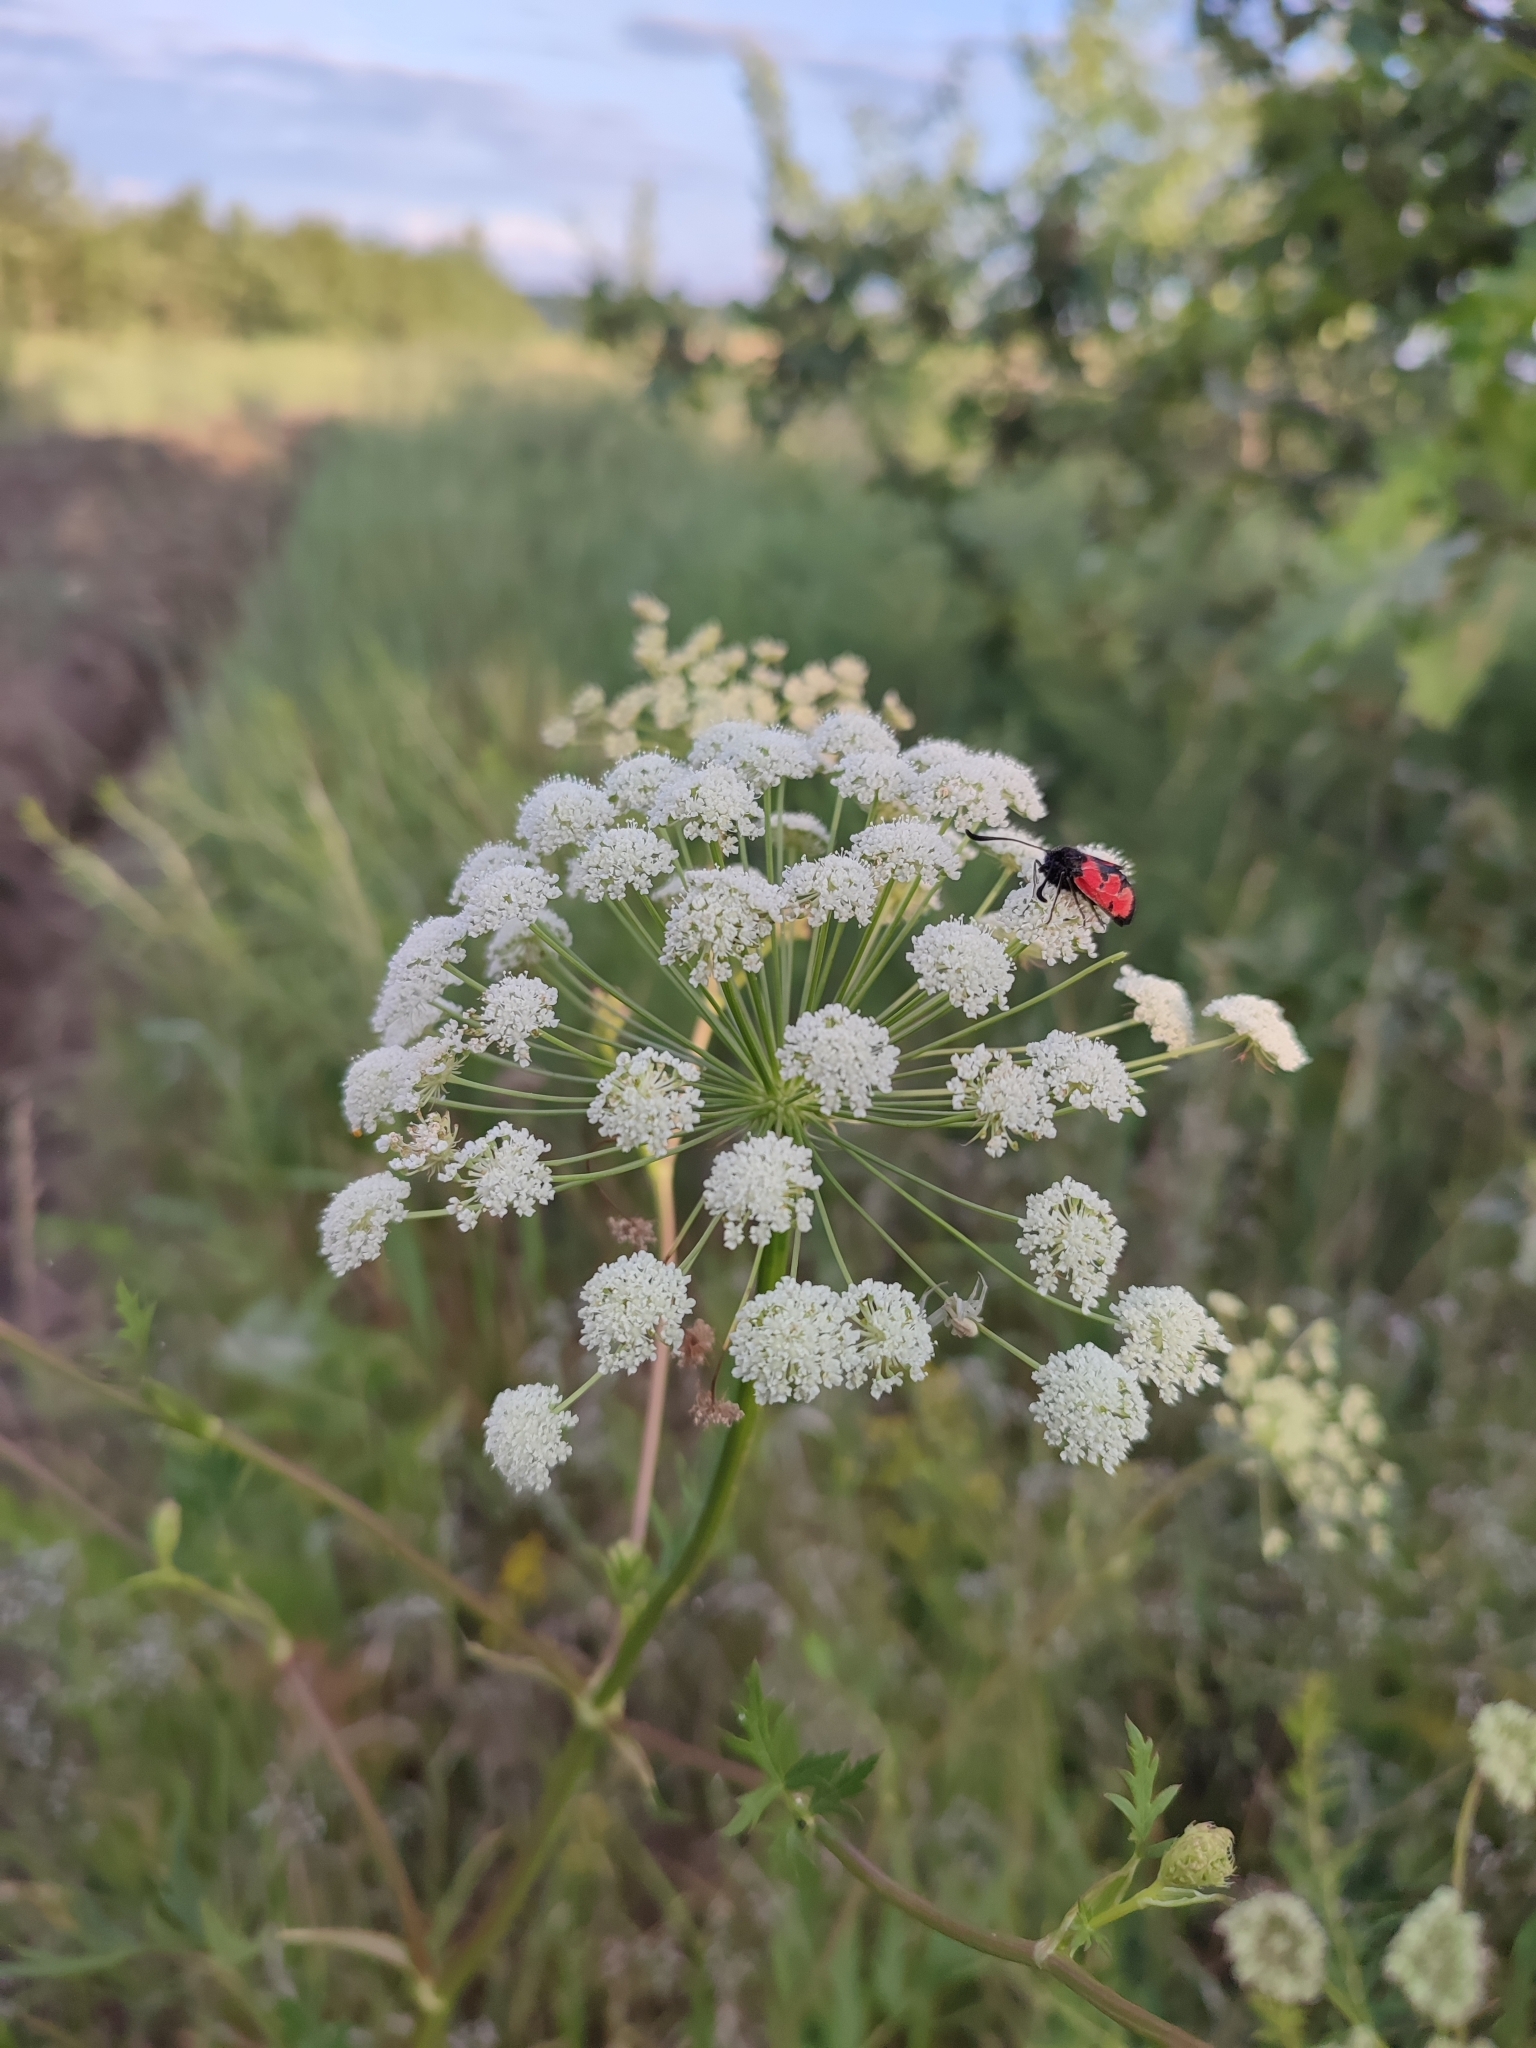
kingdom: Plantae
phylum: Tracheophyta
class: Magnoliopsida
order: Apiales
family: Apiaceae
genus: Seseli
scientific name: Seseli libanotis
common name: Mooncarrot
